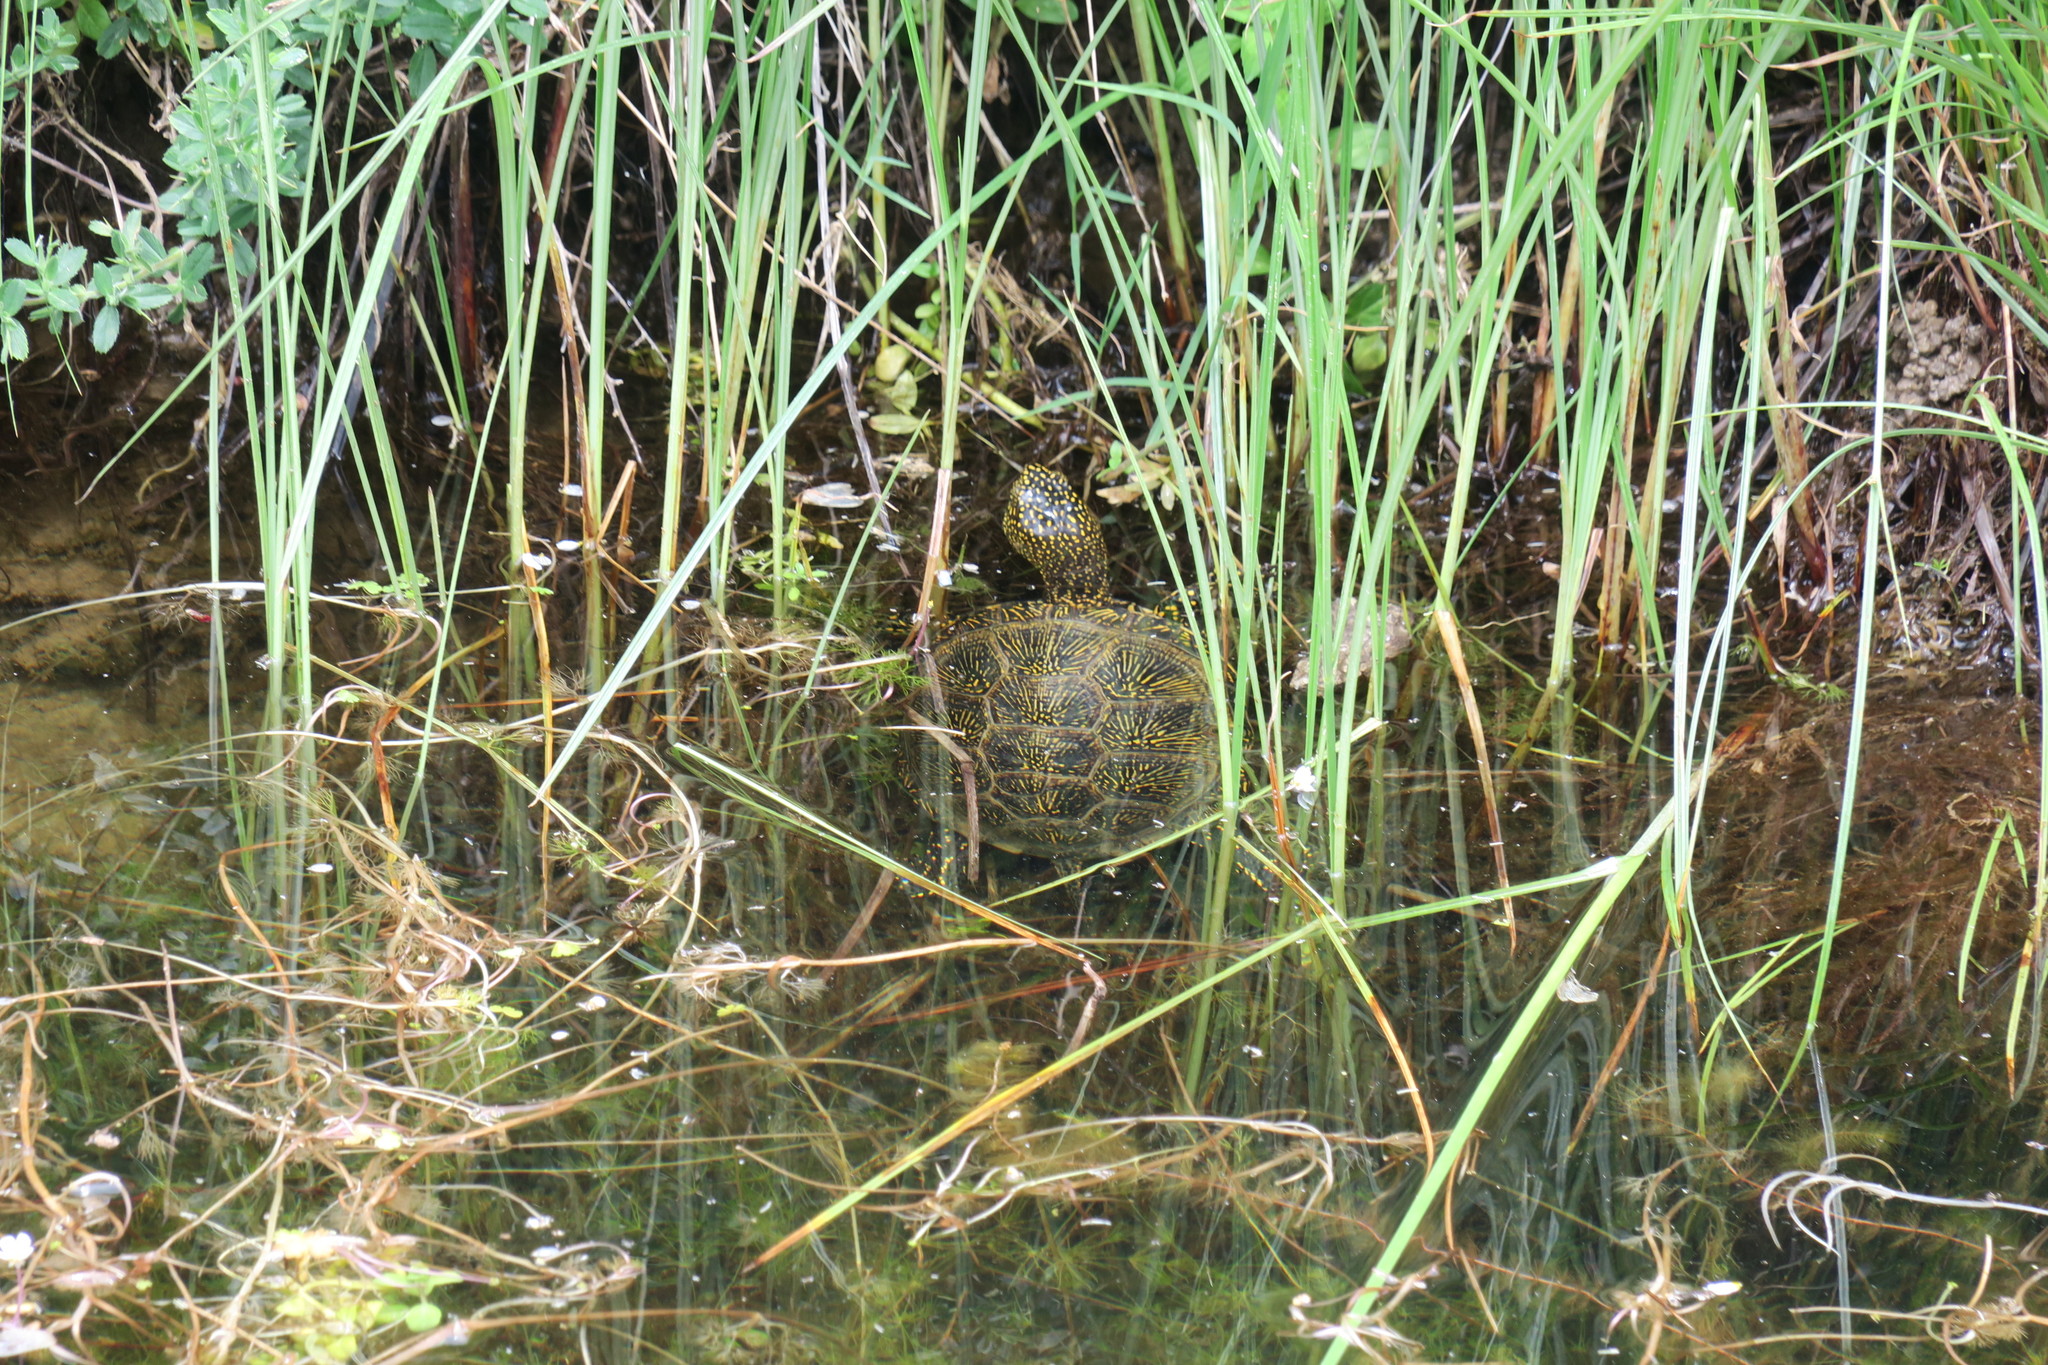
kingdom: Animalia
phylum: Chordata
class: Testudines
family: Emydidae
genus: Emys
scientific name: Emys orbicularis
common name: European pond turtle
